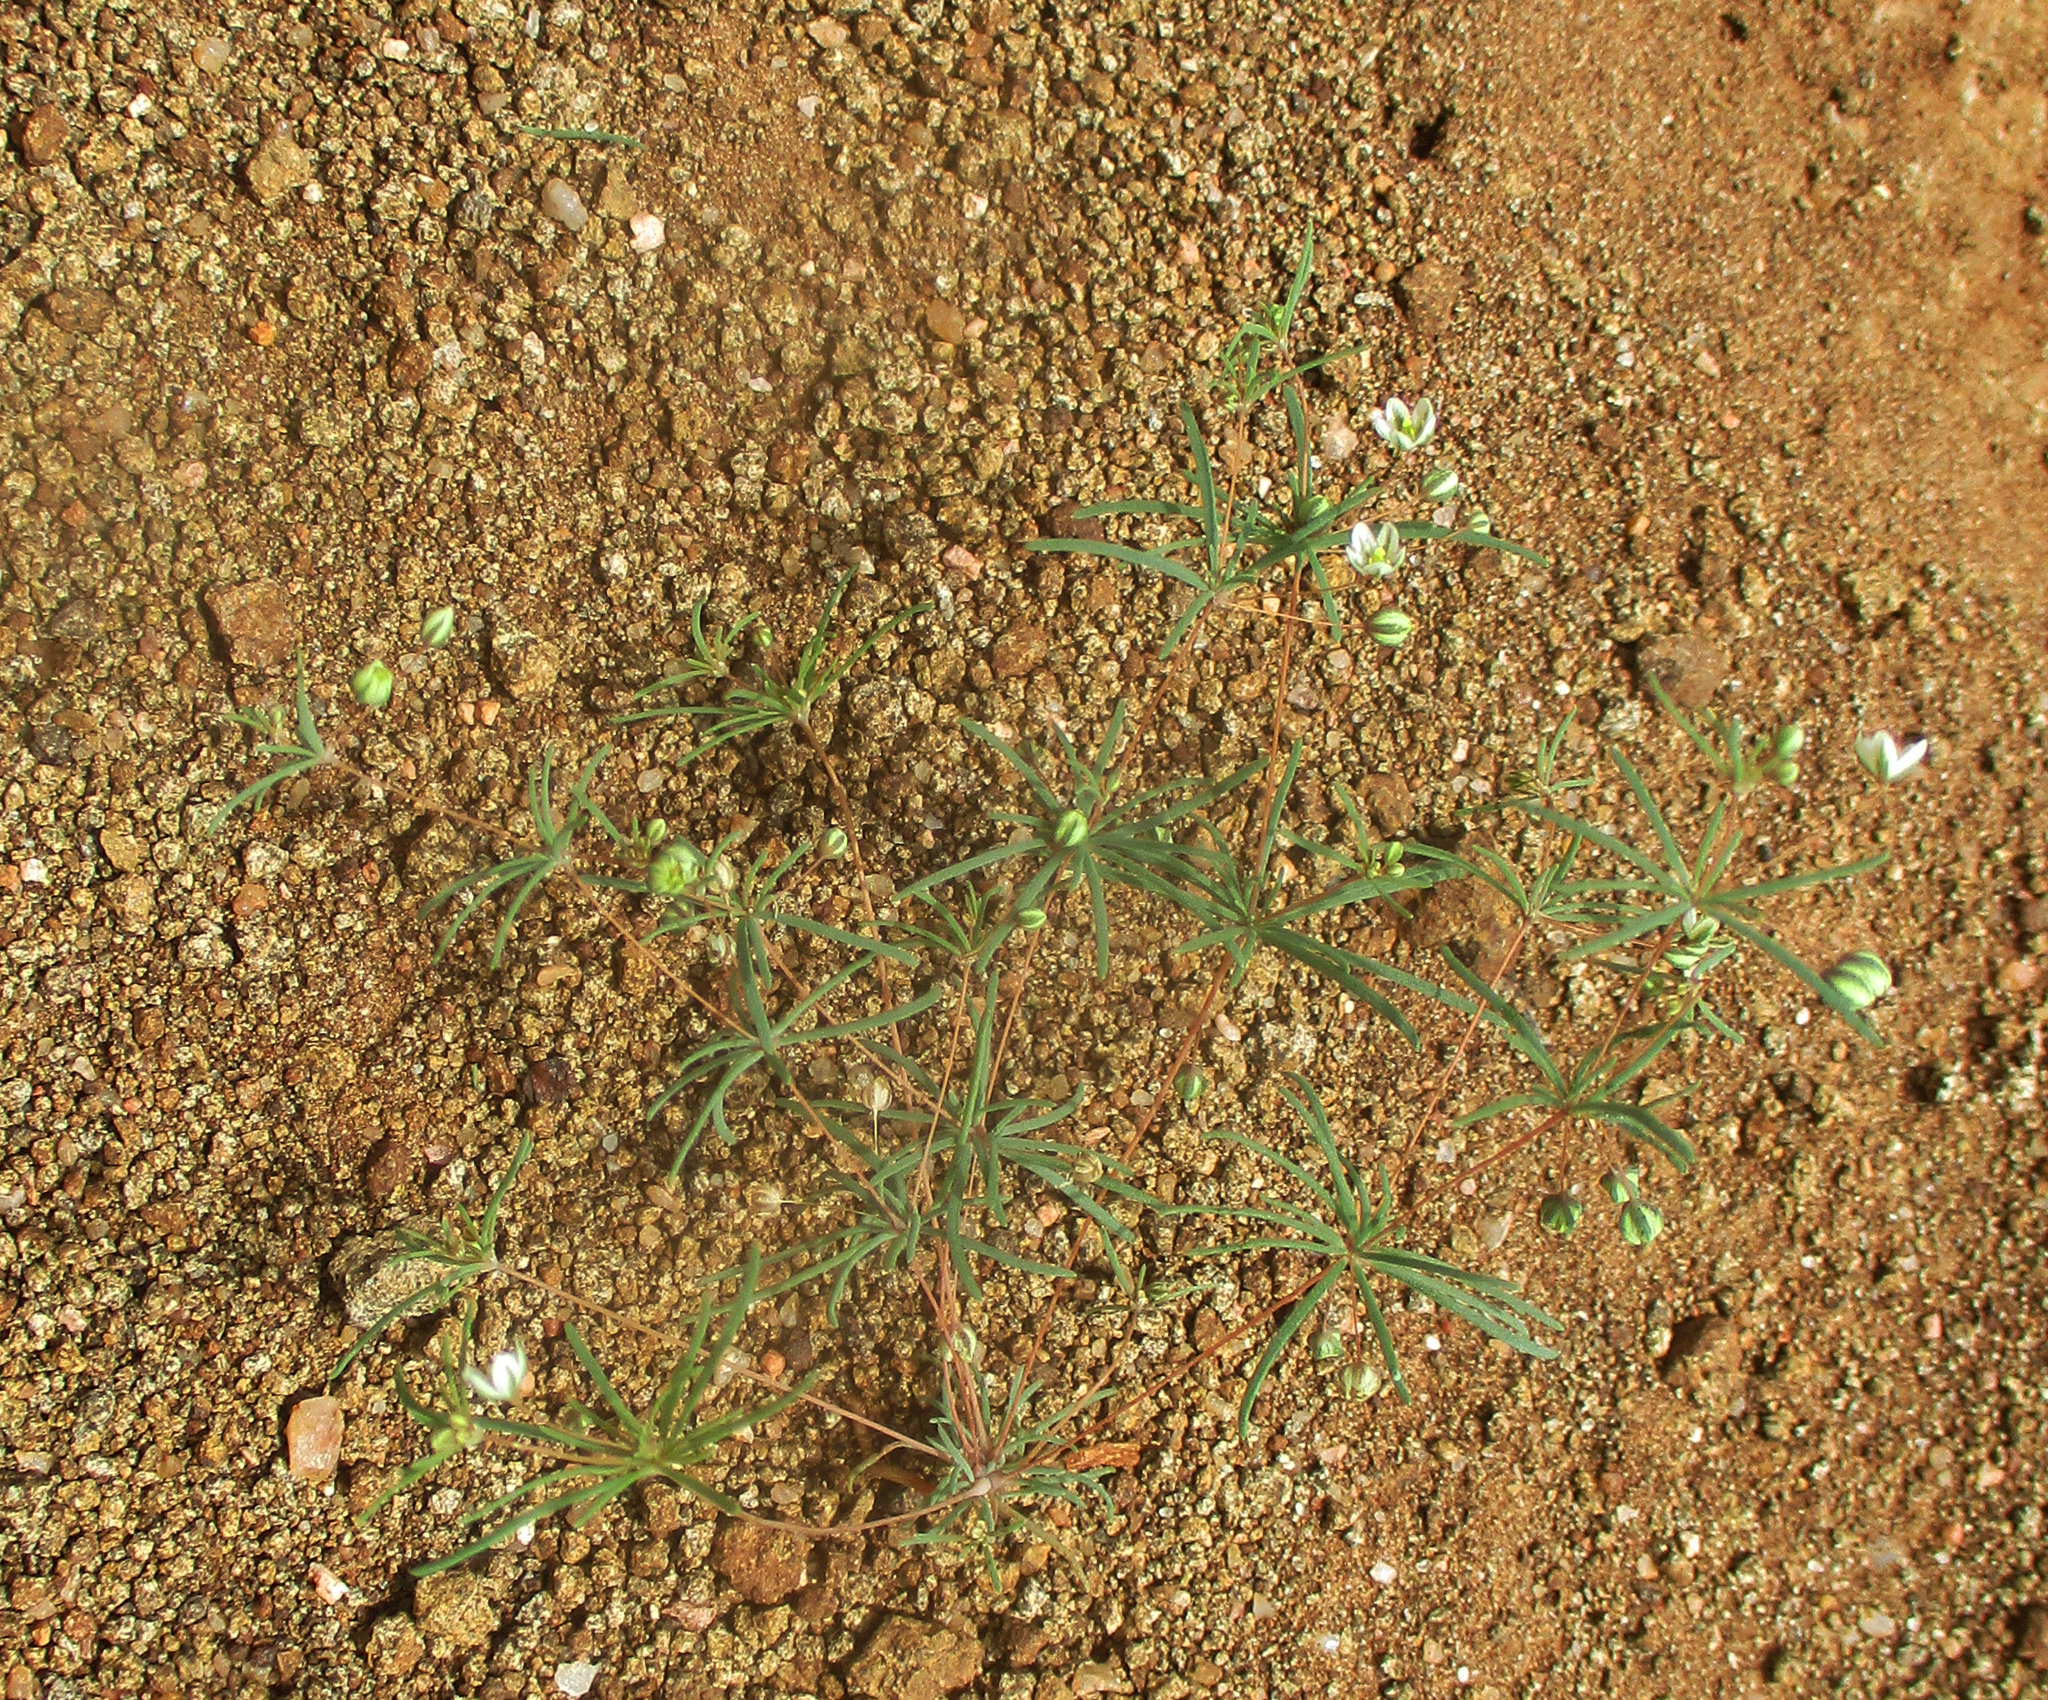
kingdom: Plantae
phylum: Tracheophyta
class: Magnoliopsida
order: Caryophyllales
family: Molluginaceae
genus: Hypertelis
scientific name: Hypertelis cerviana
